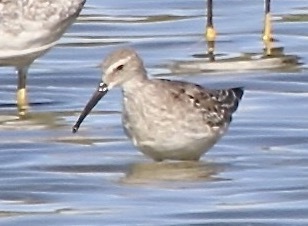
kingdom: Animalia
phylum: Chordata
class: Aves
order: Charadriiformes
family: Scolopacidae
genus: Calidris
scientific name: Calidris himantopus
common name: Stilt sandpiper
